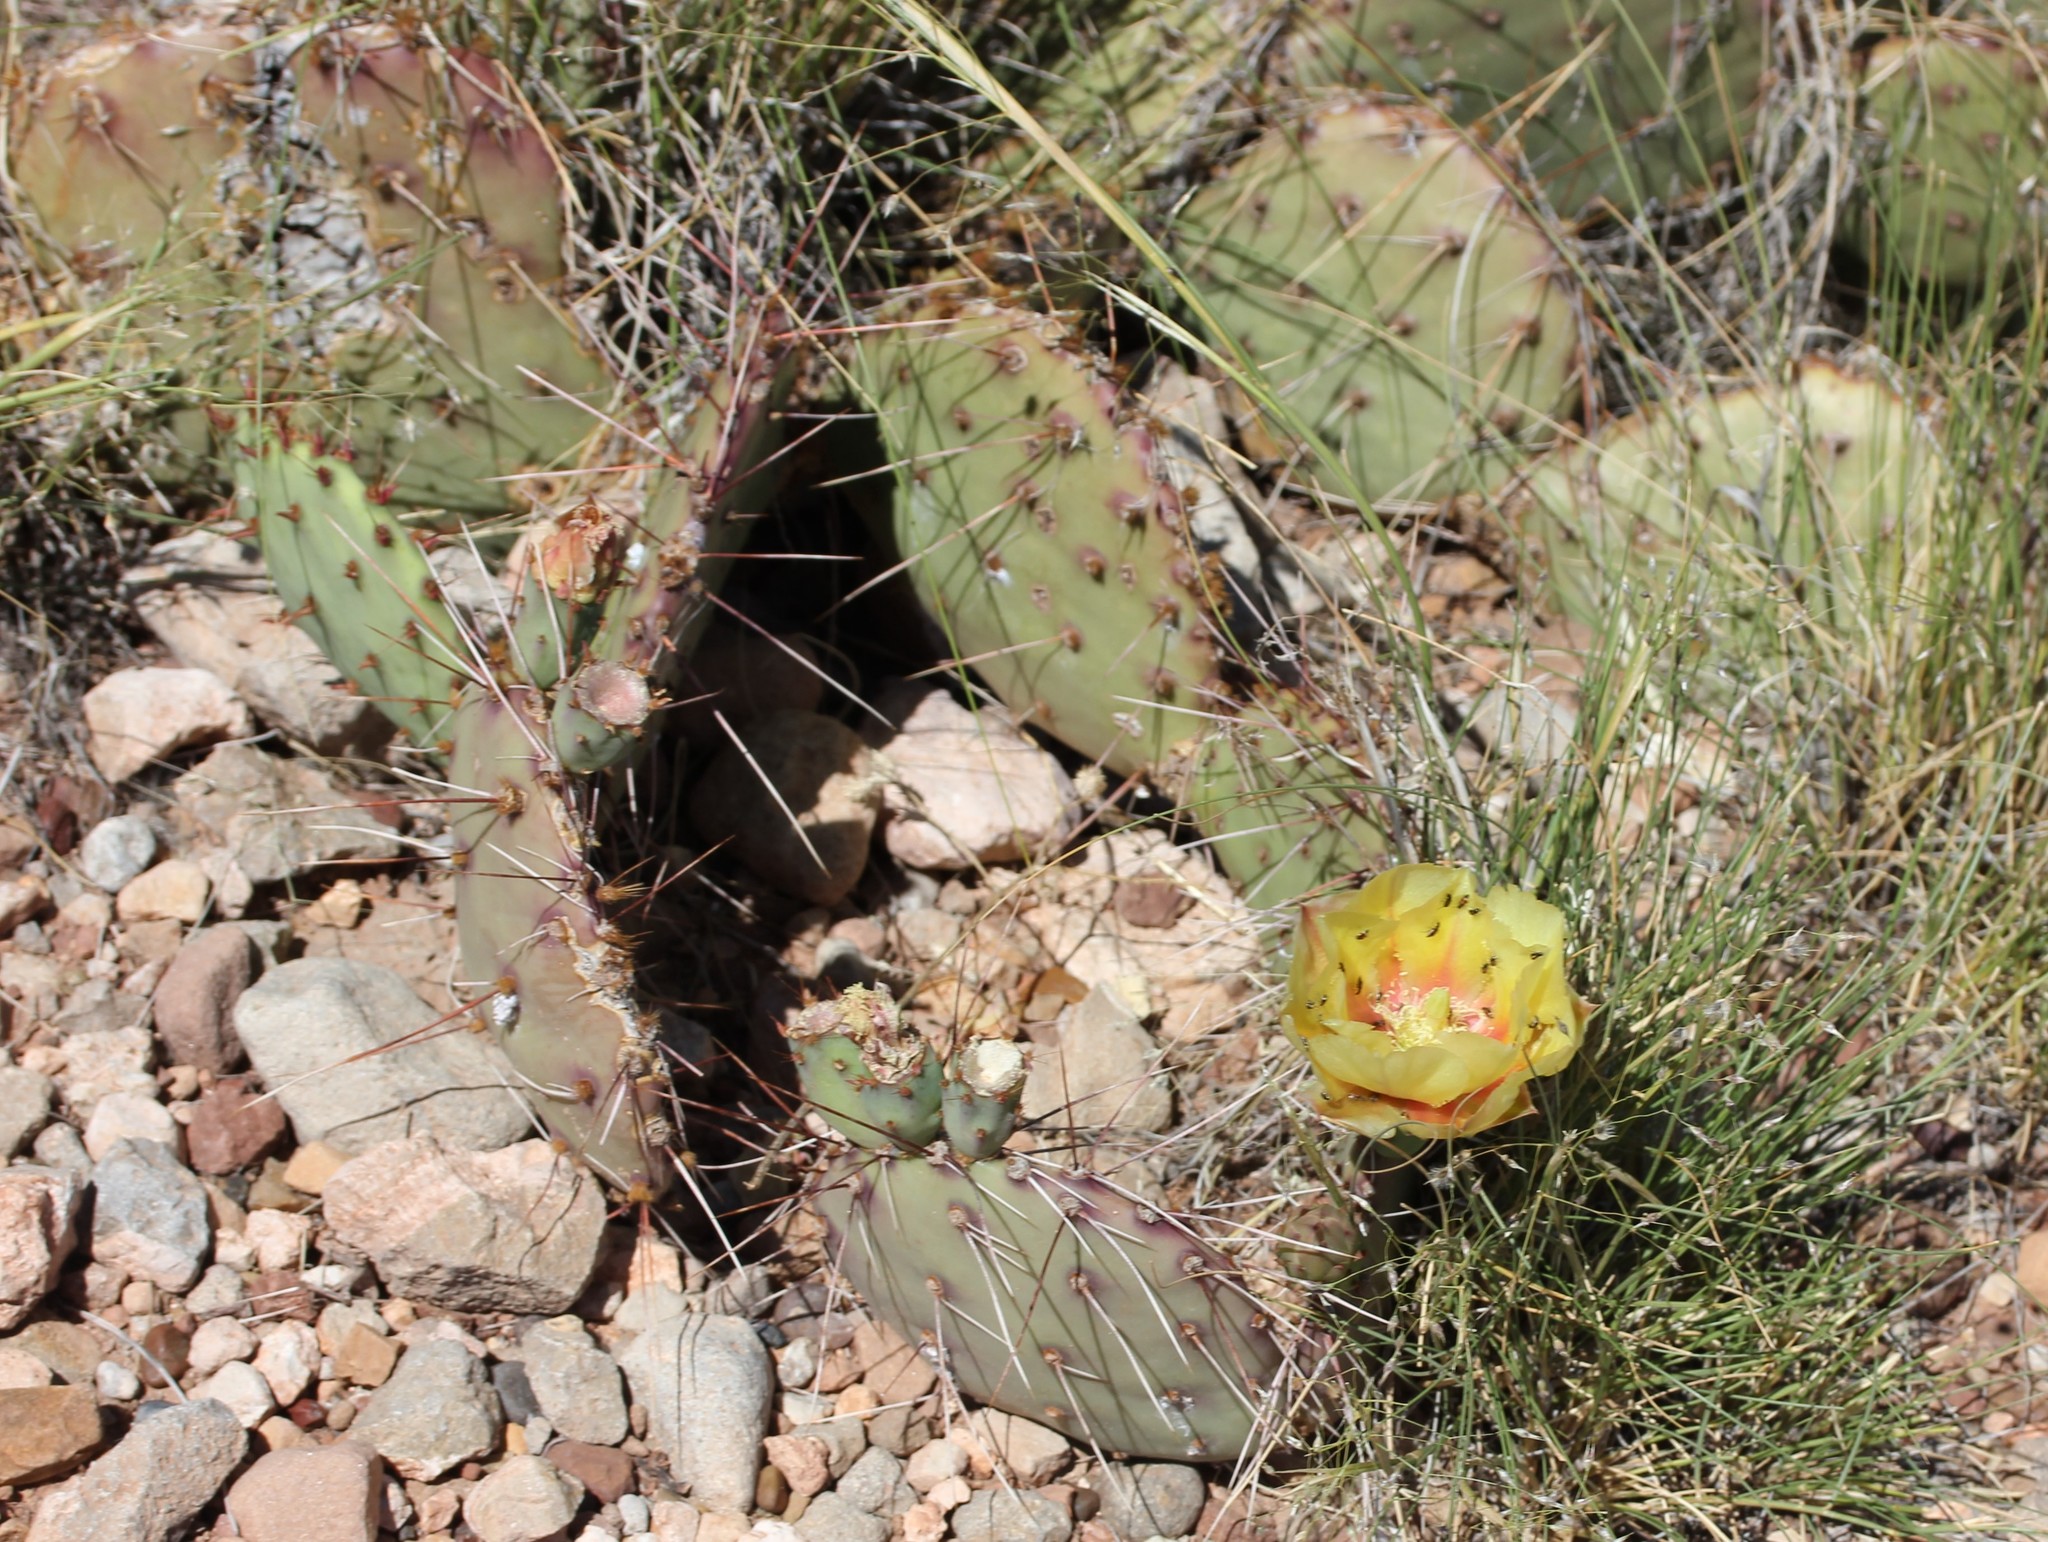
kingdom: Plantae
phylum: Tracheophyta
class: Magnoliopsida
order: Caryophyllales
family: Cactaceae
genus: Opuntia
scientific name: Opuntia phaeacantha
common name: New mexico prickly-pear
